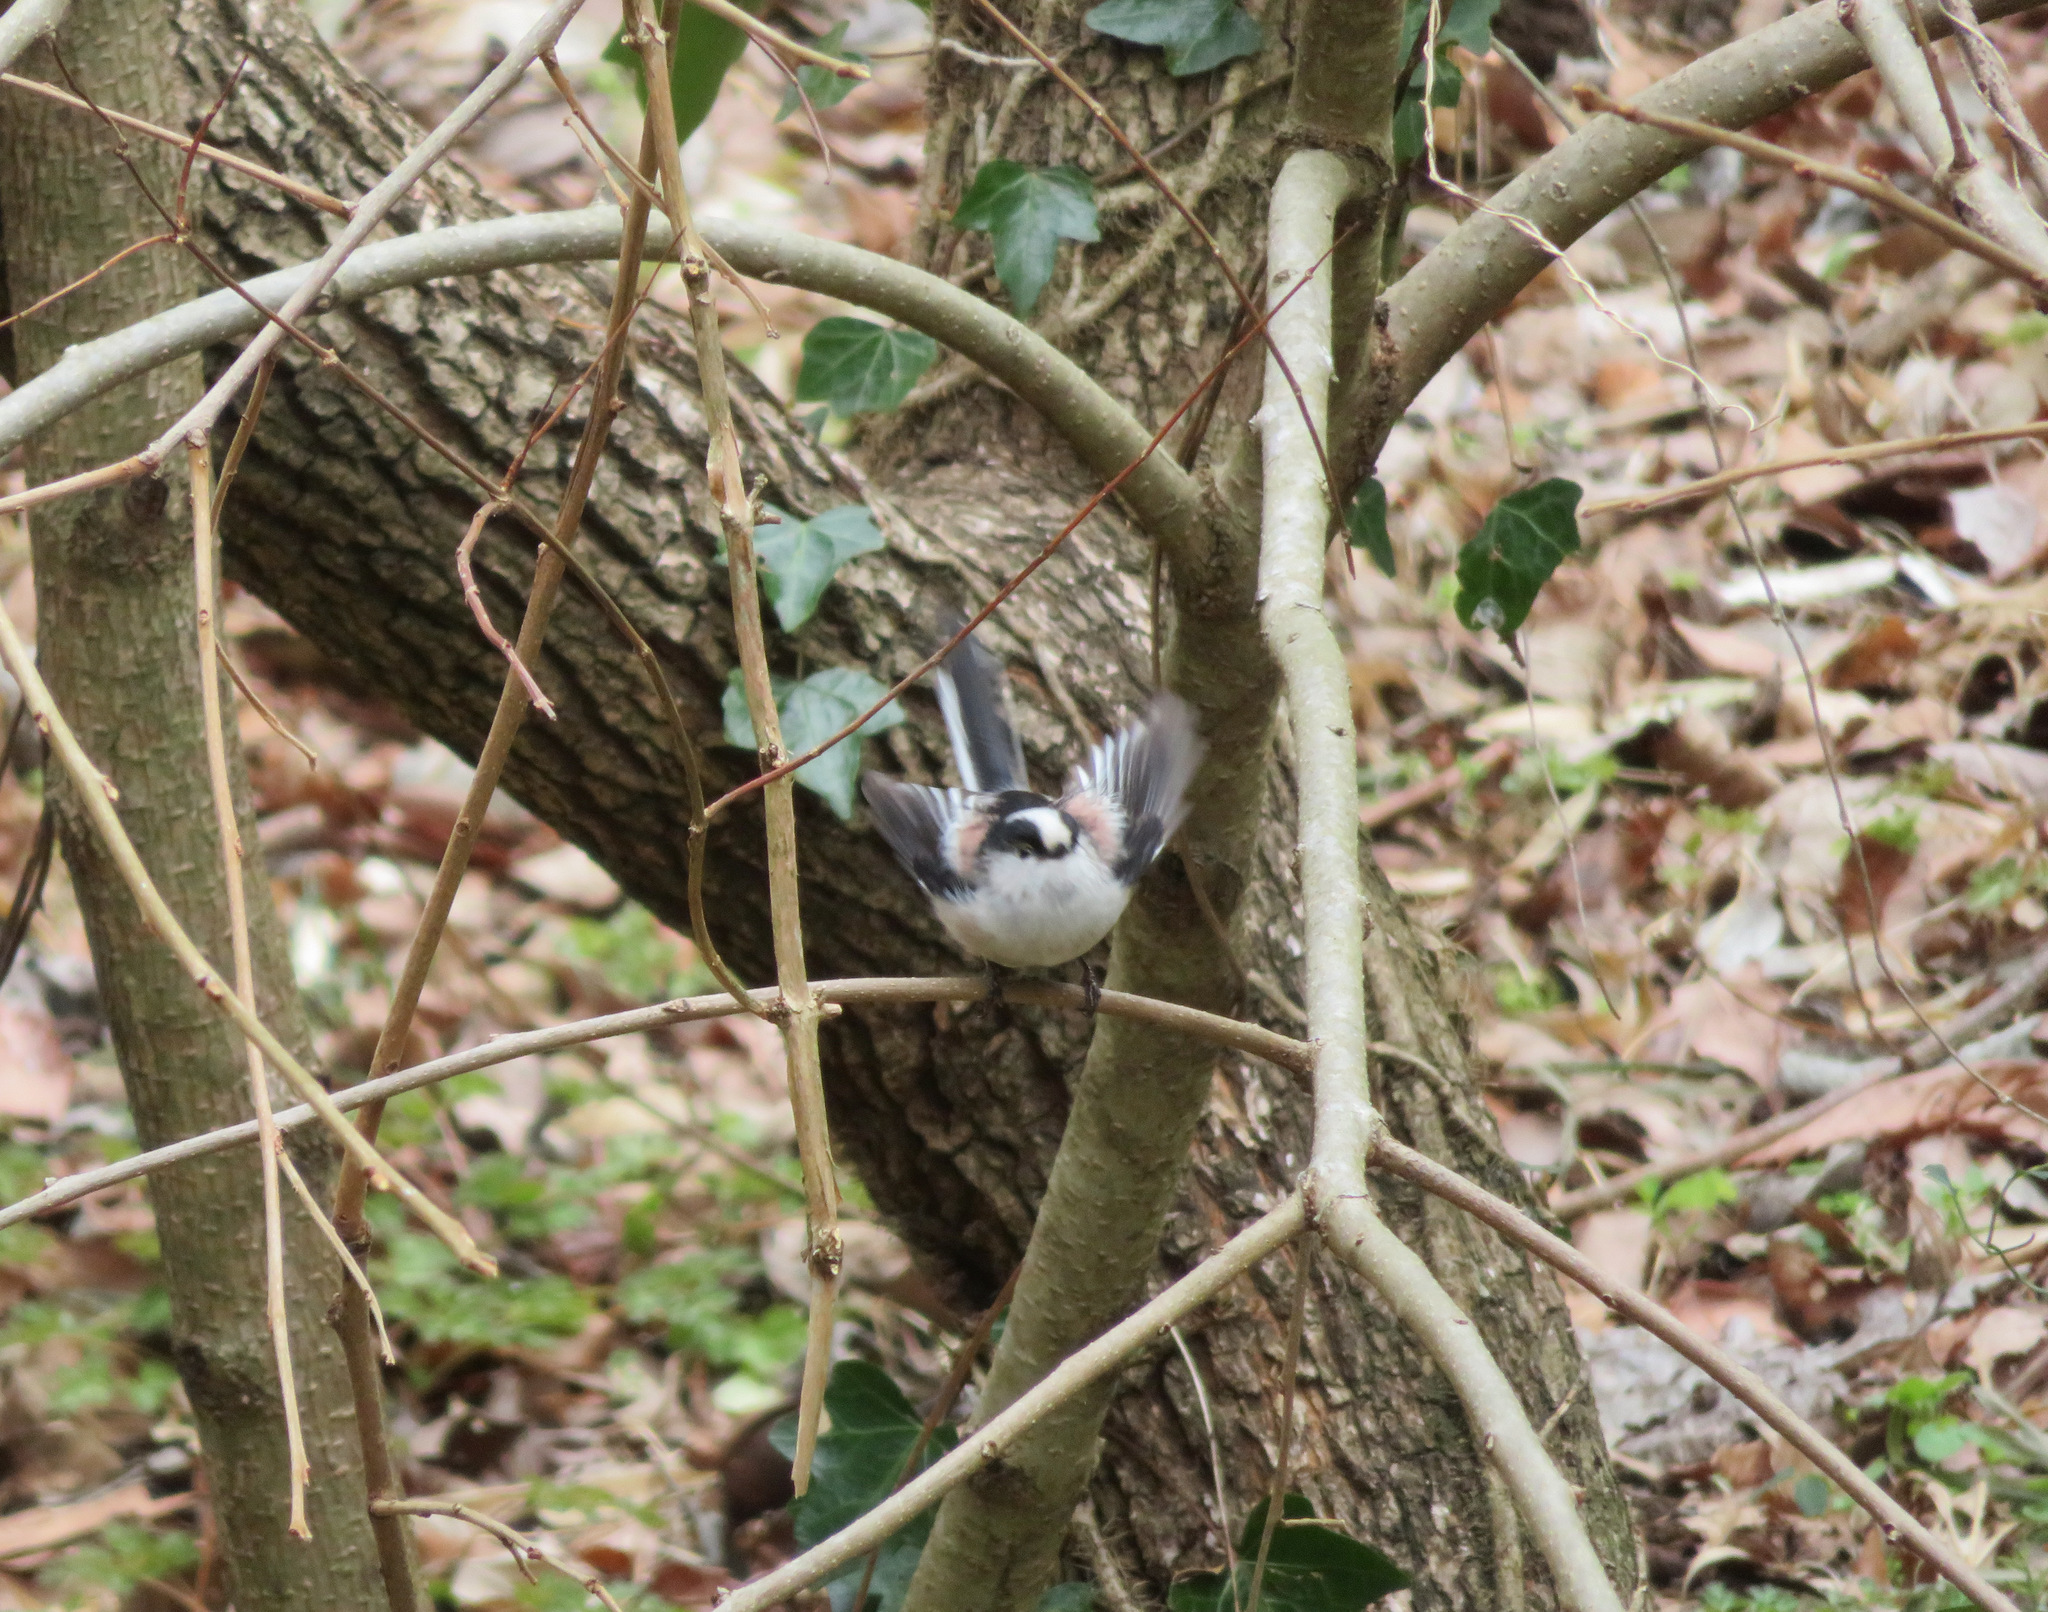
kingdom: Animalia
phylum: Chordata
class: Aves
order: Passeriformes
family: Aegithalidae
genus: Aegithalos
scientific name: Aegithalos caudatus
